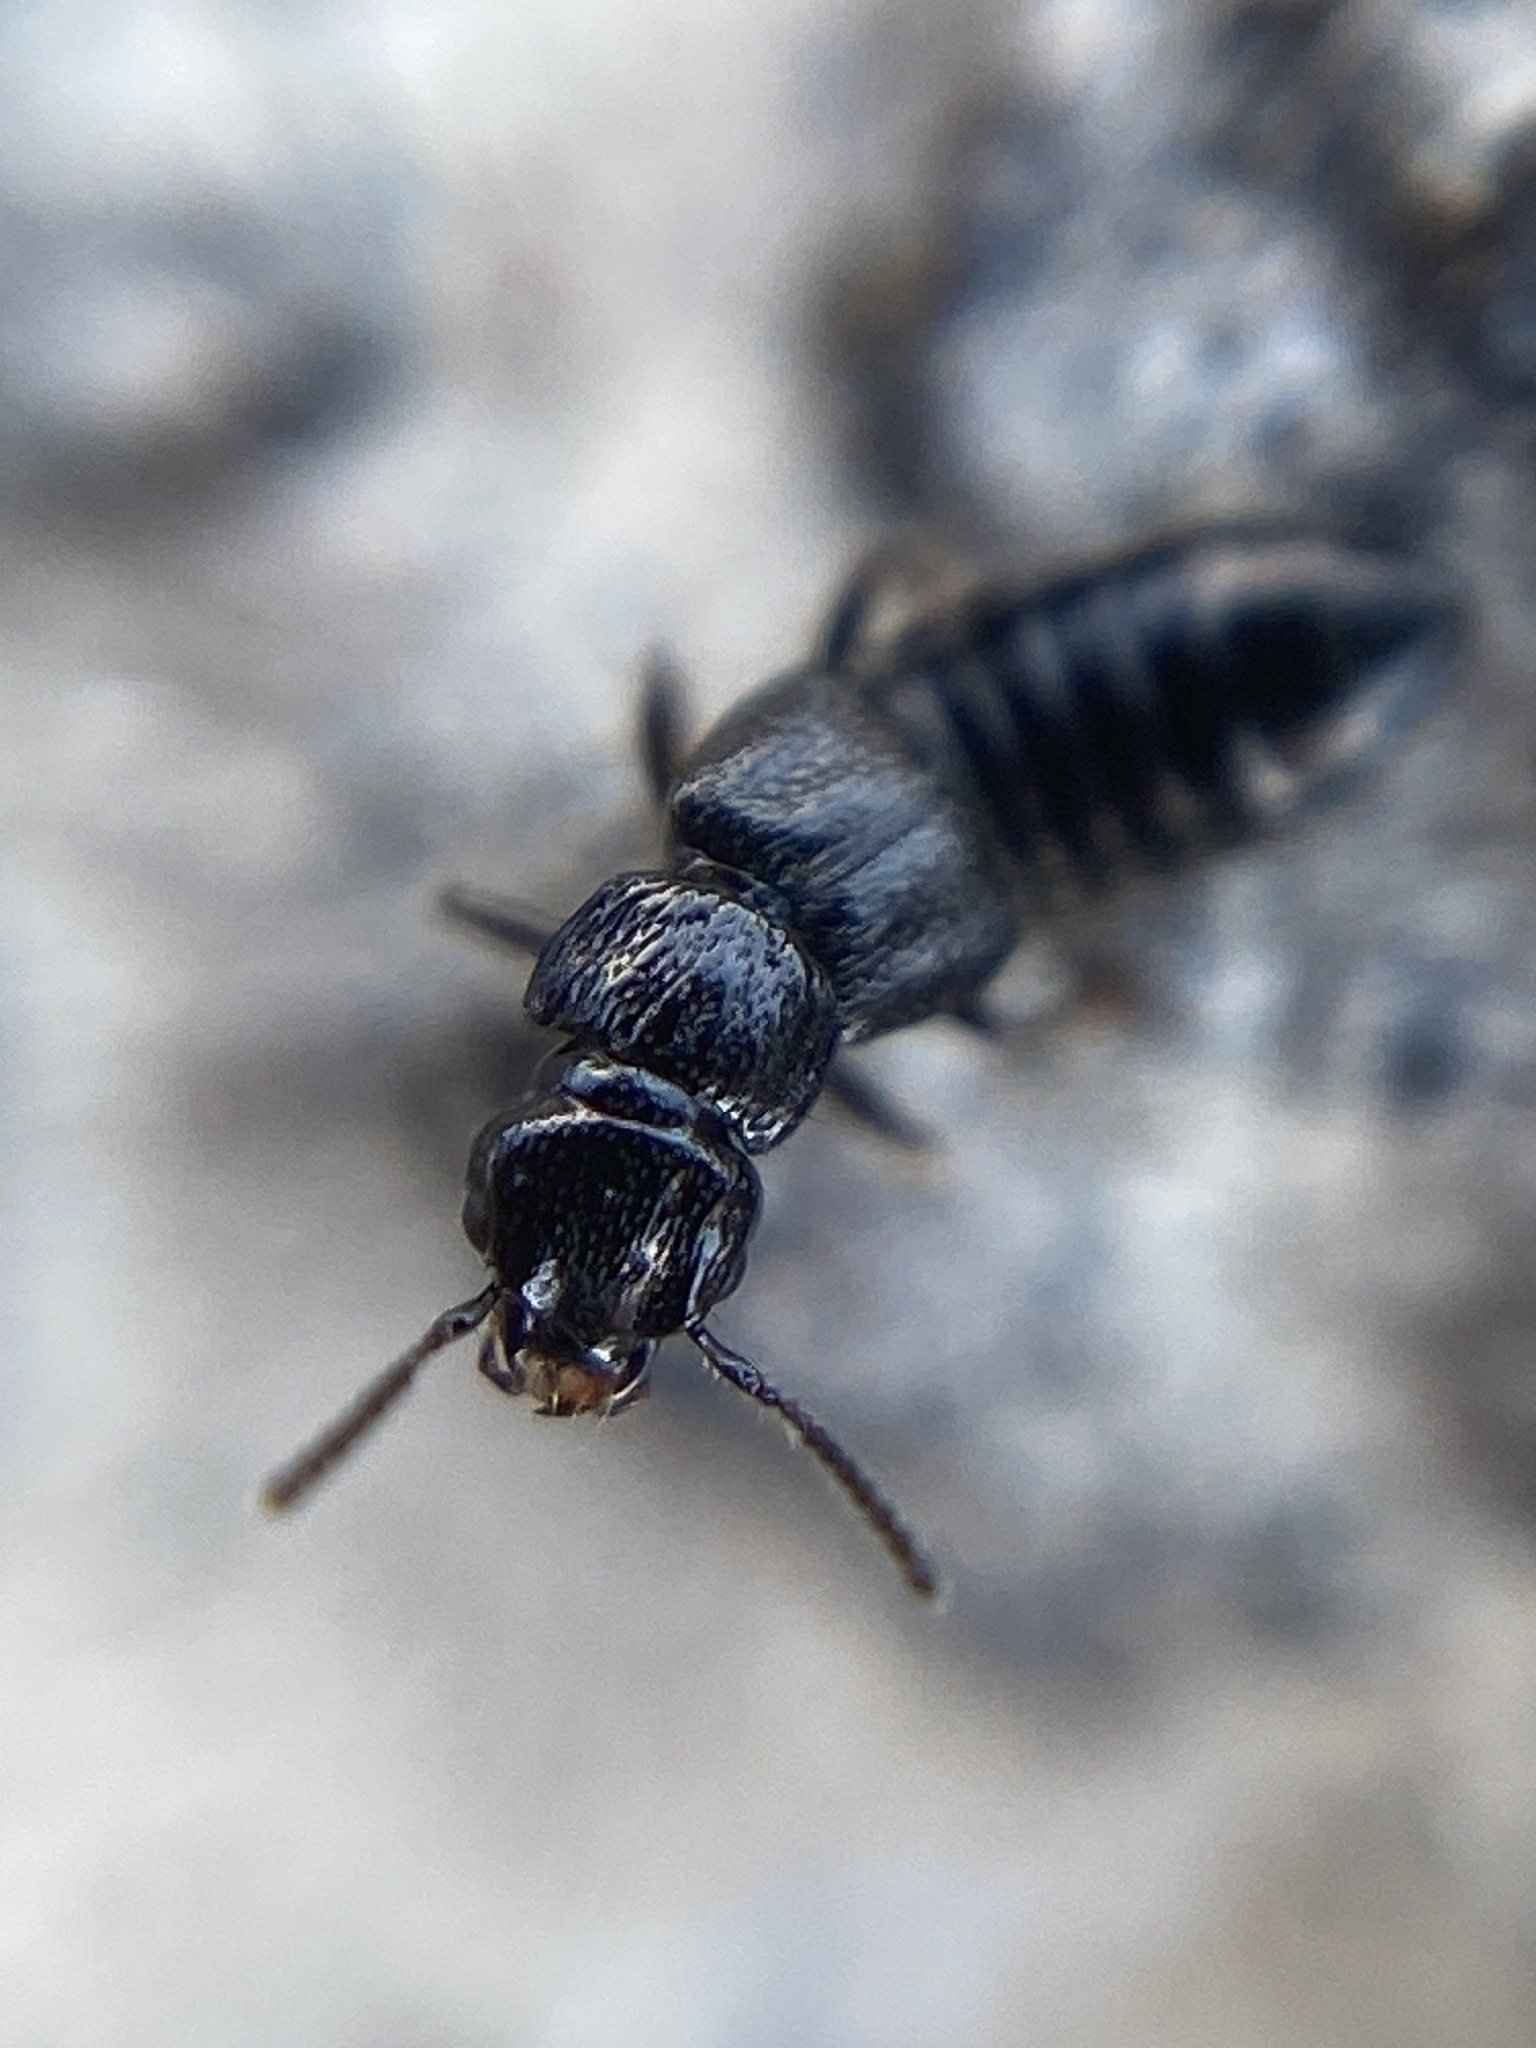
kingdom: Animalia
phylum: Arthropoda
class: Insecta
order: Coleoptera
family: Staphylinidae
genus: Anotylus
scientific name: Anotylus inustus
